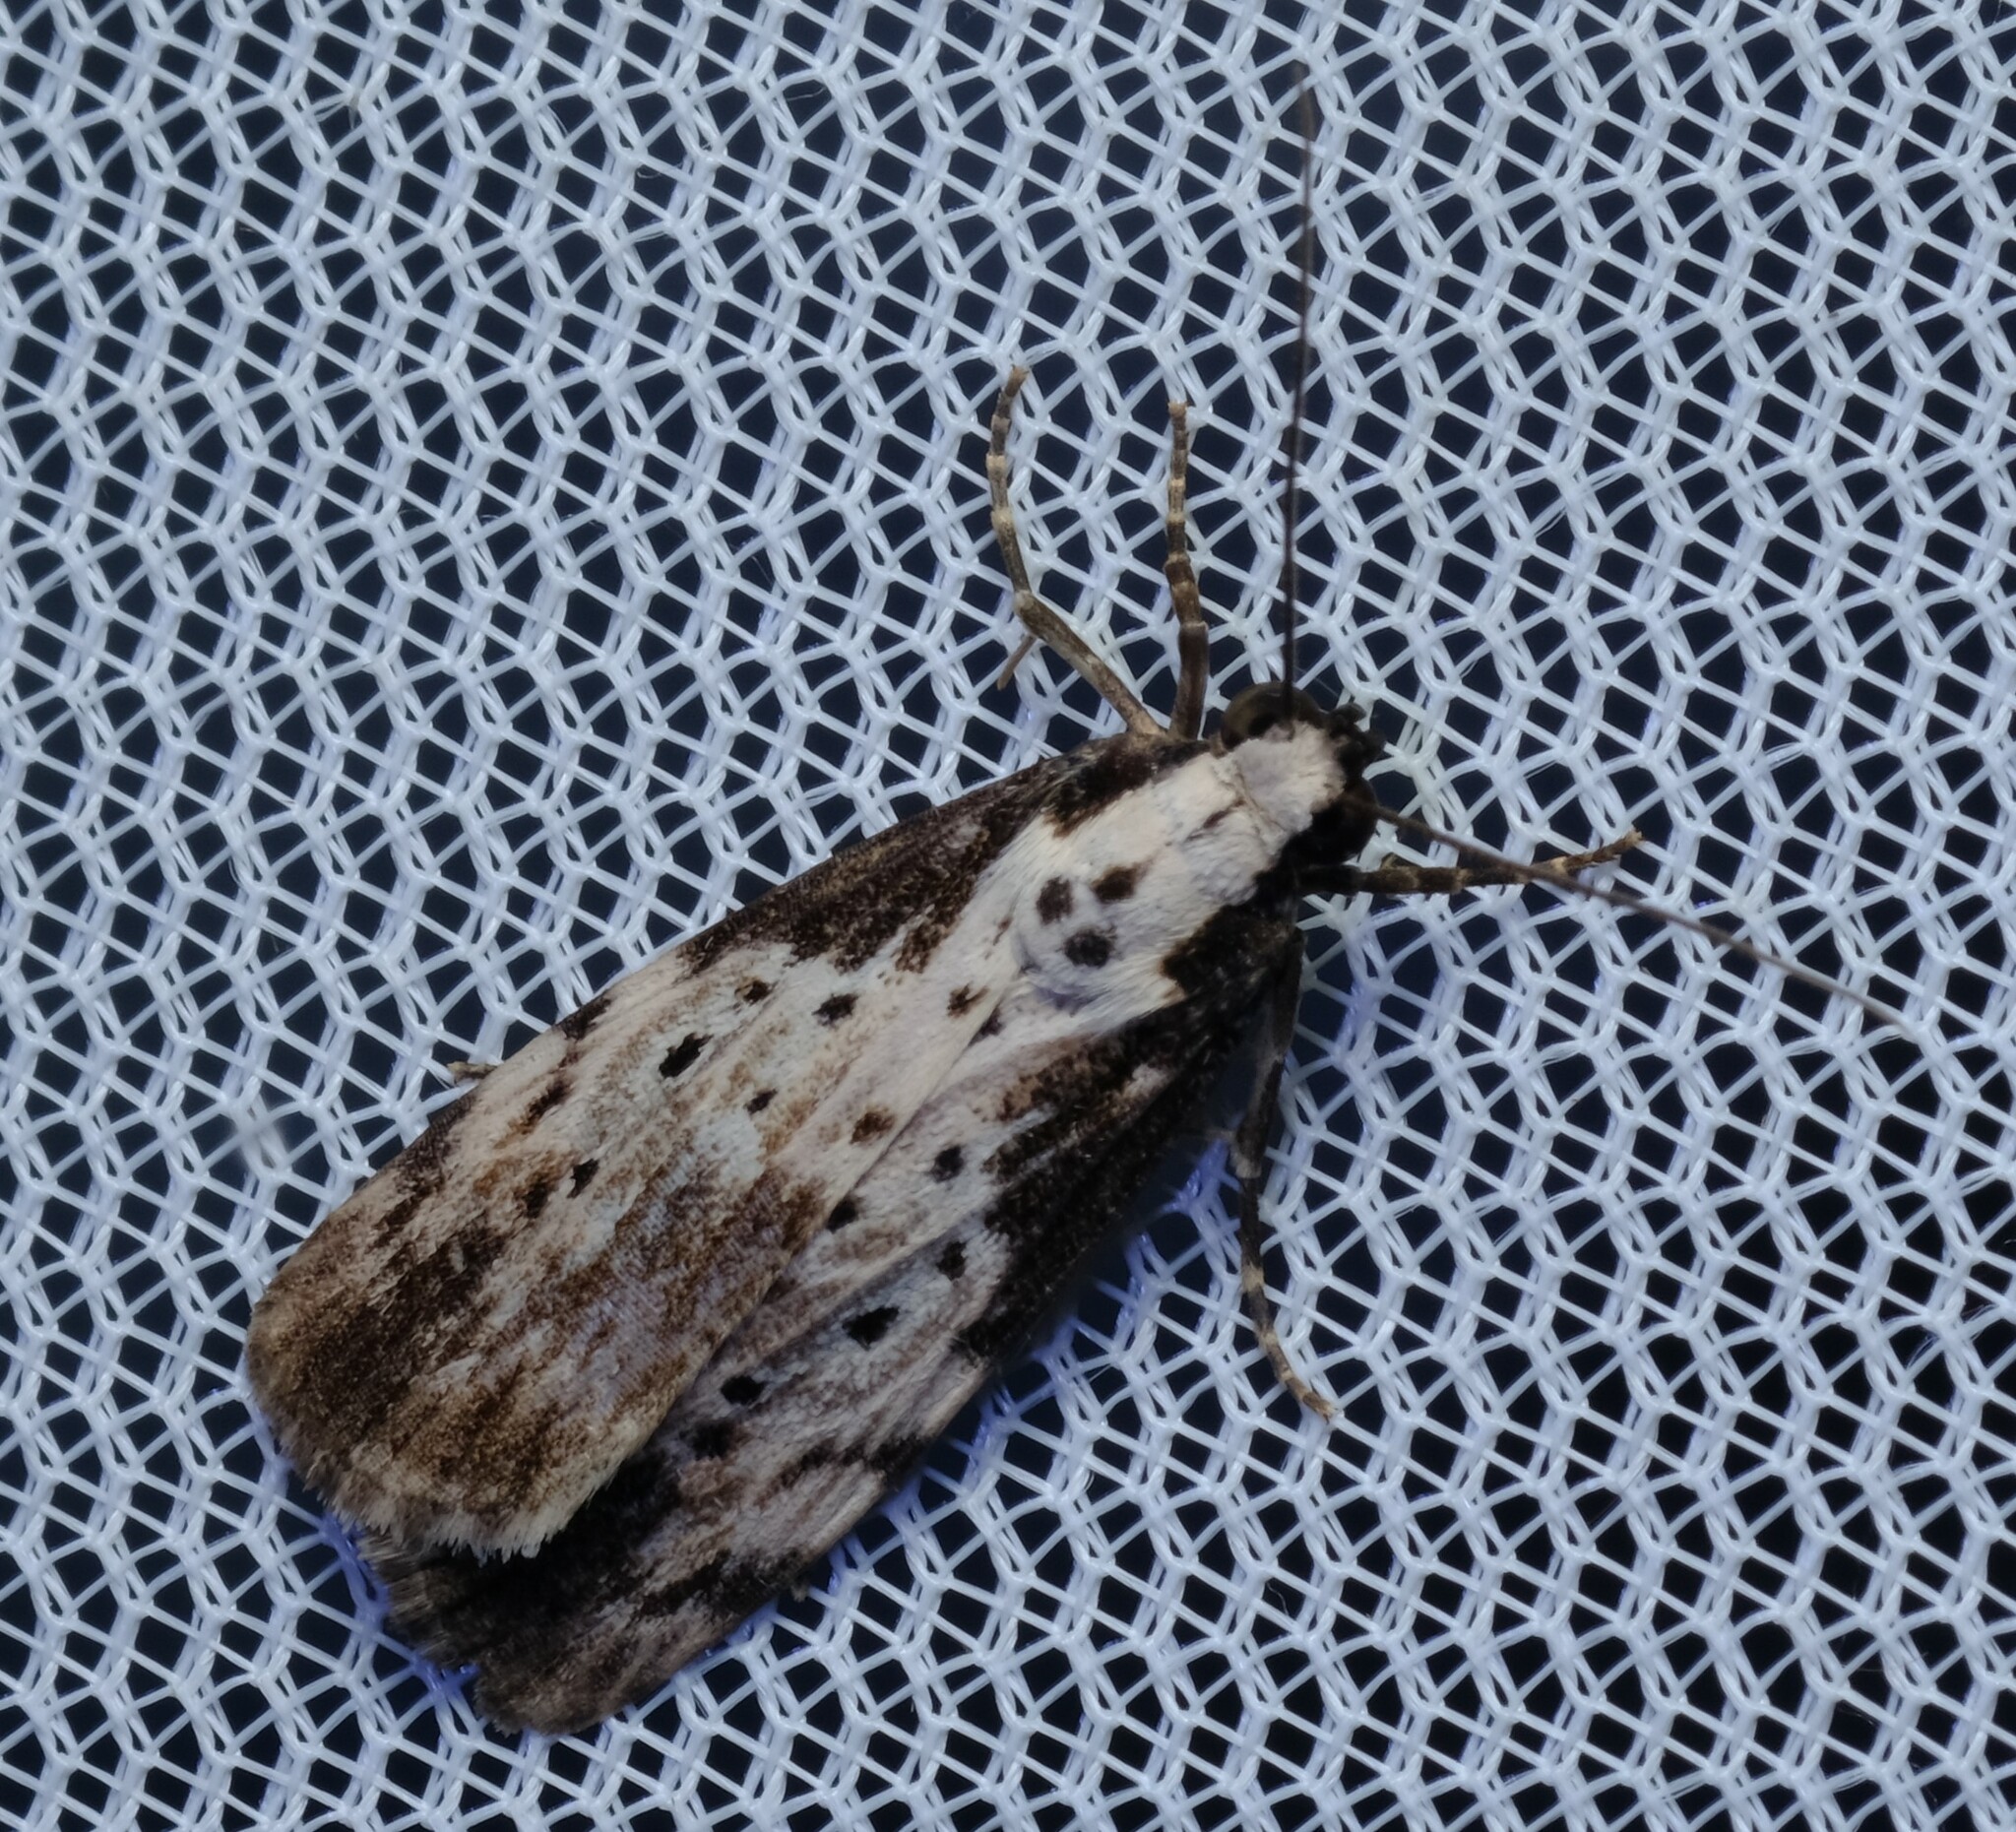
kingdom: Animalia
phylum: Arthropoda
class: Insecta
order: Lepidoptera
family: Erebidae
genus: Digama
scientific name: Digama Sommeria marmorea
